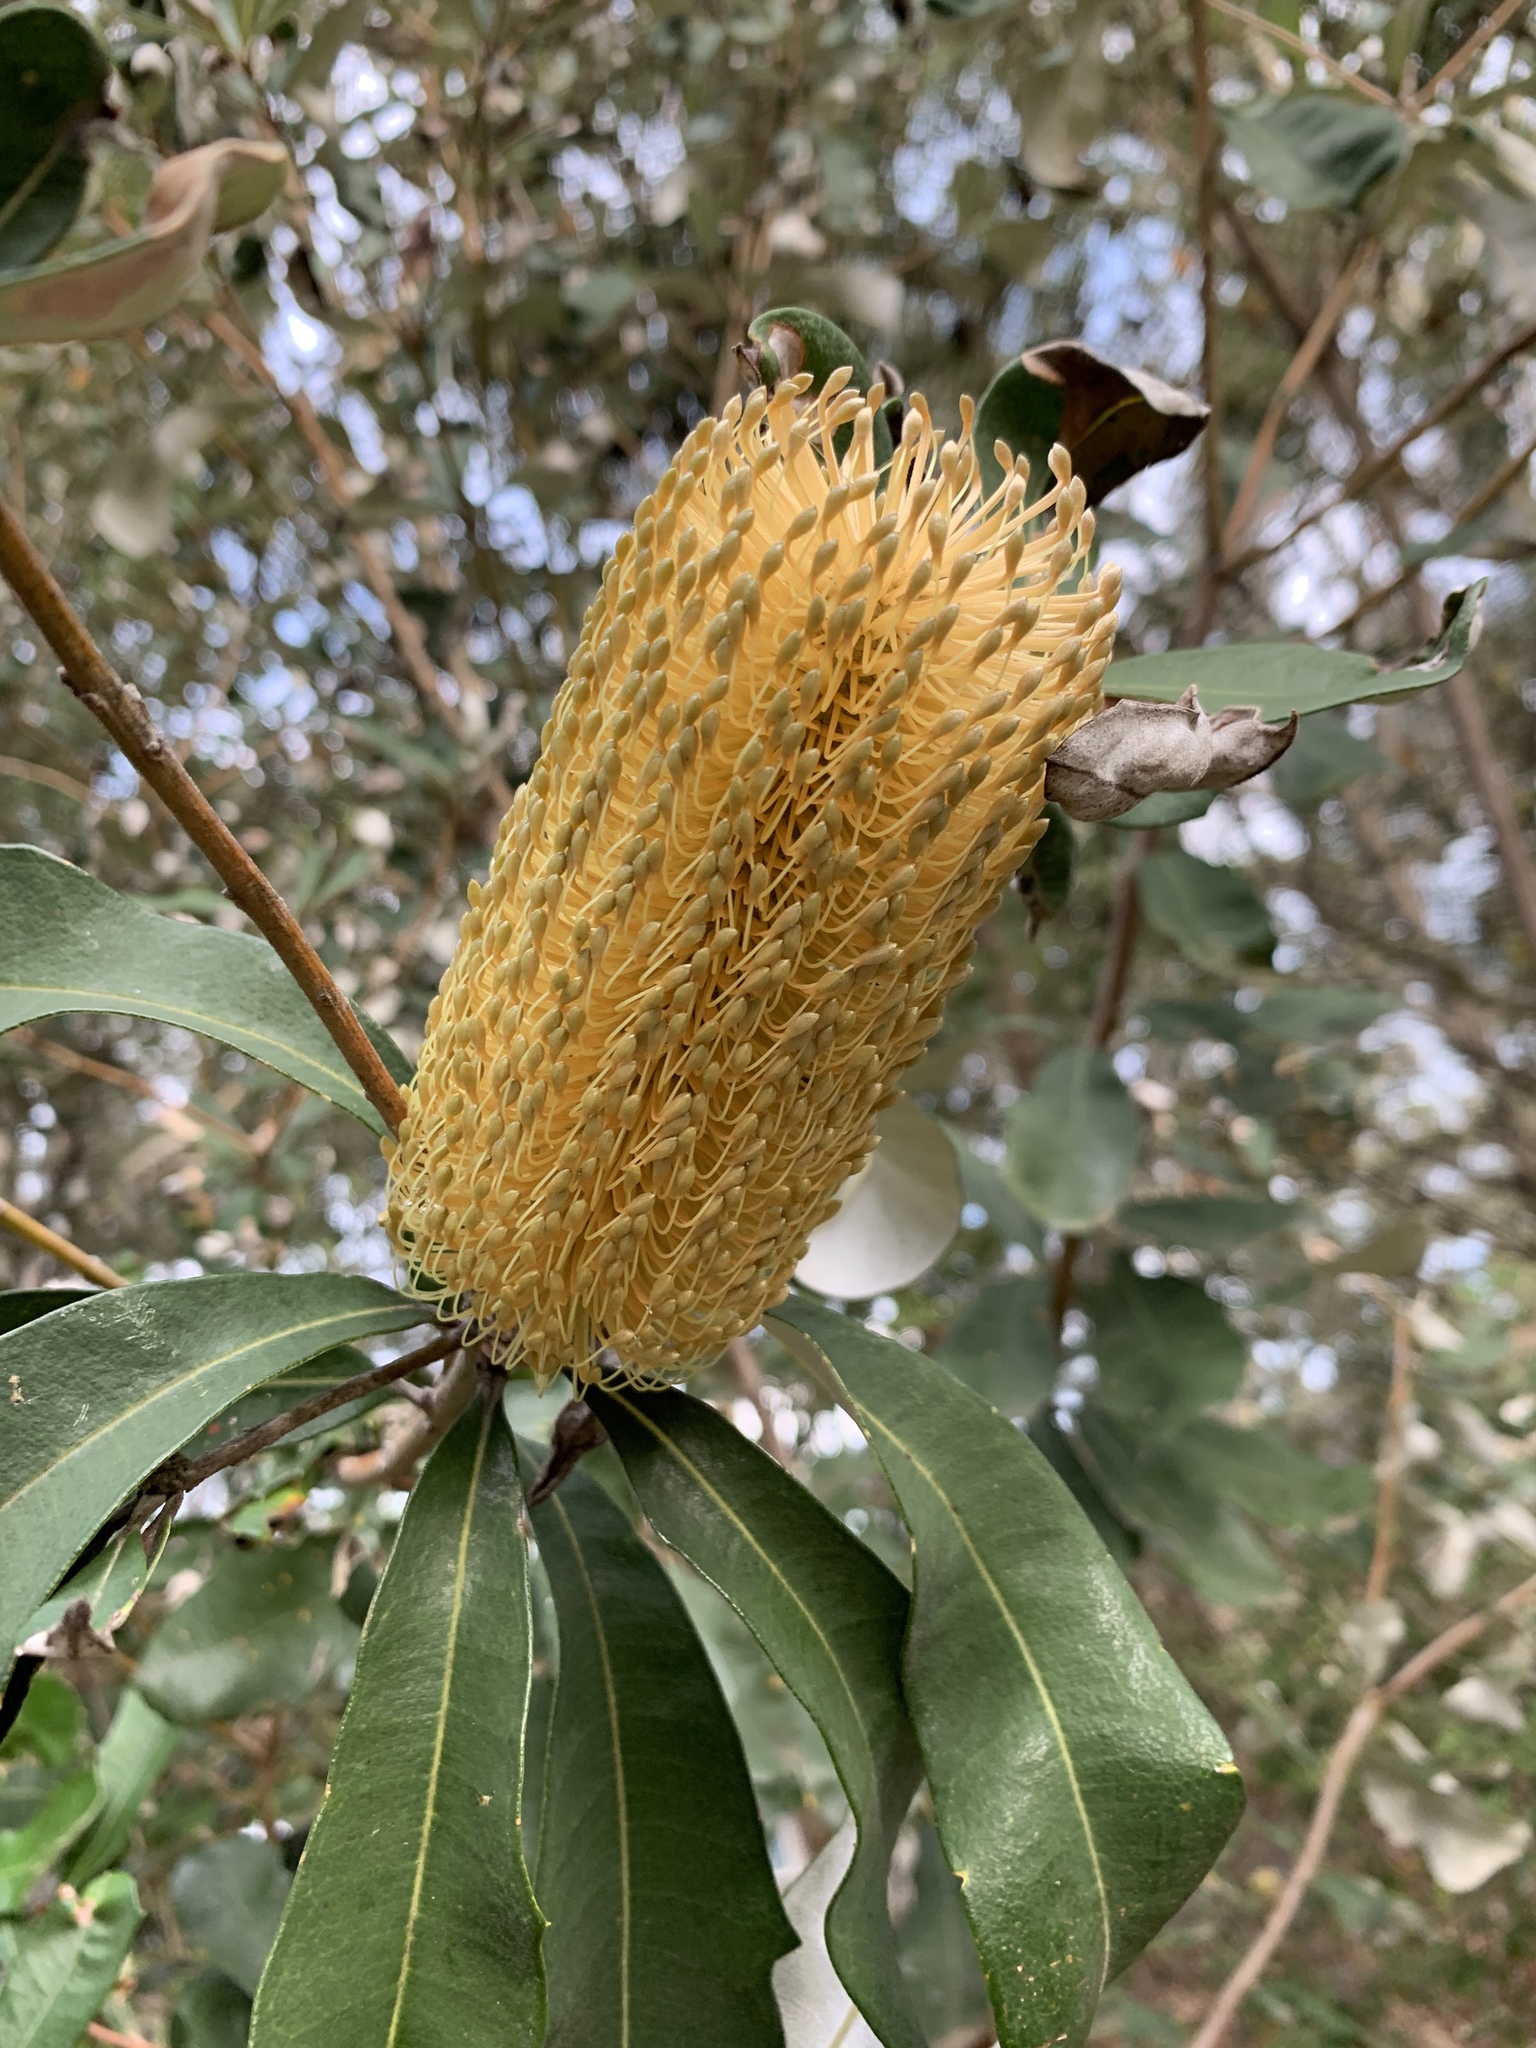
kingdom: Plantae
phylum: Tracheophyta
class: Magnoliopsida
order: Proteales
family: Proteaceae
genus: Banksia
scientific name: Banksia integrifolia
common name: White-honeysuckle
